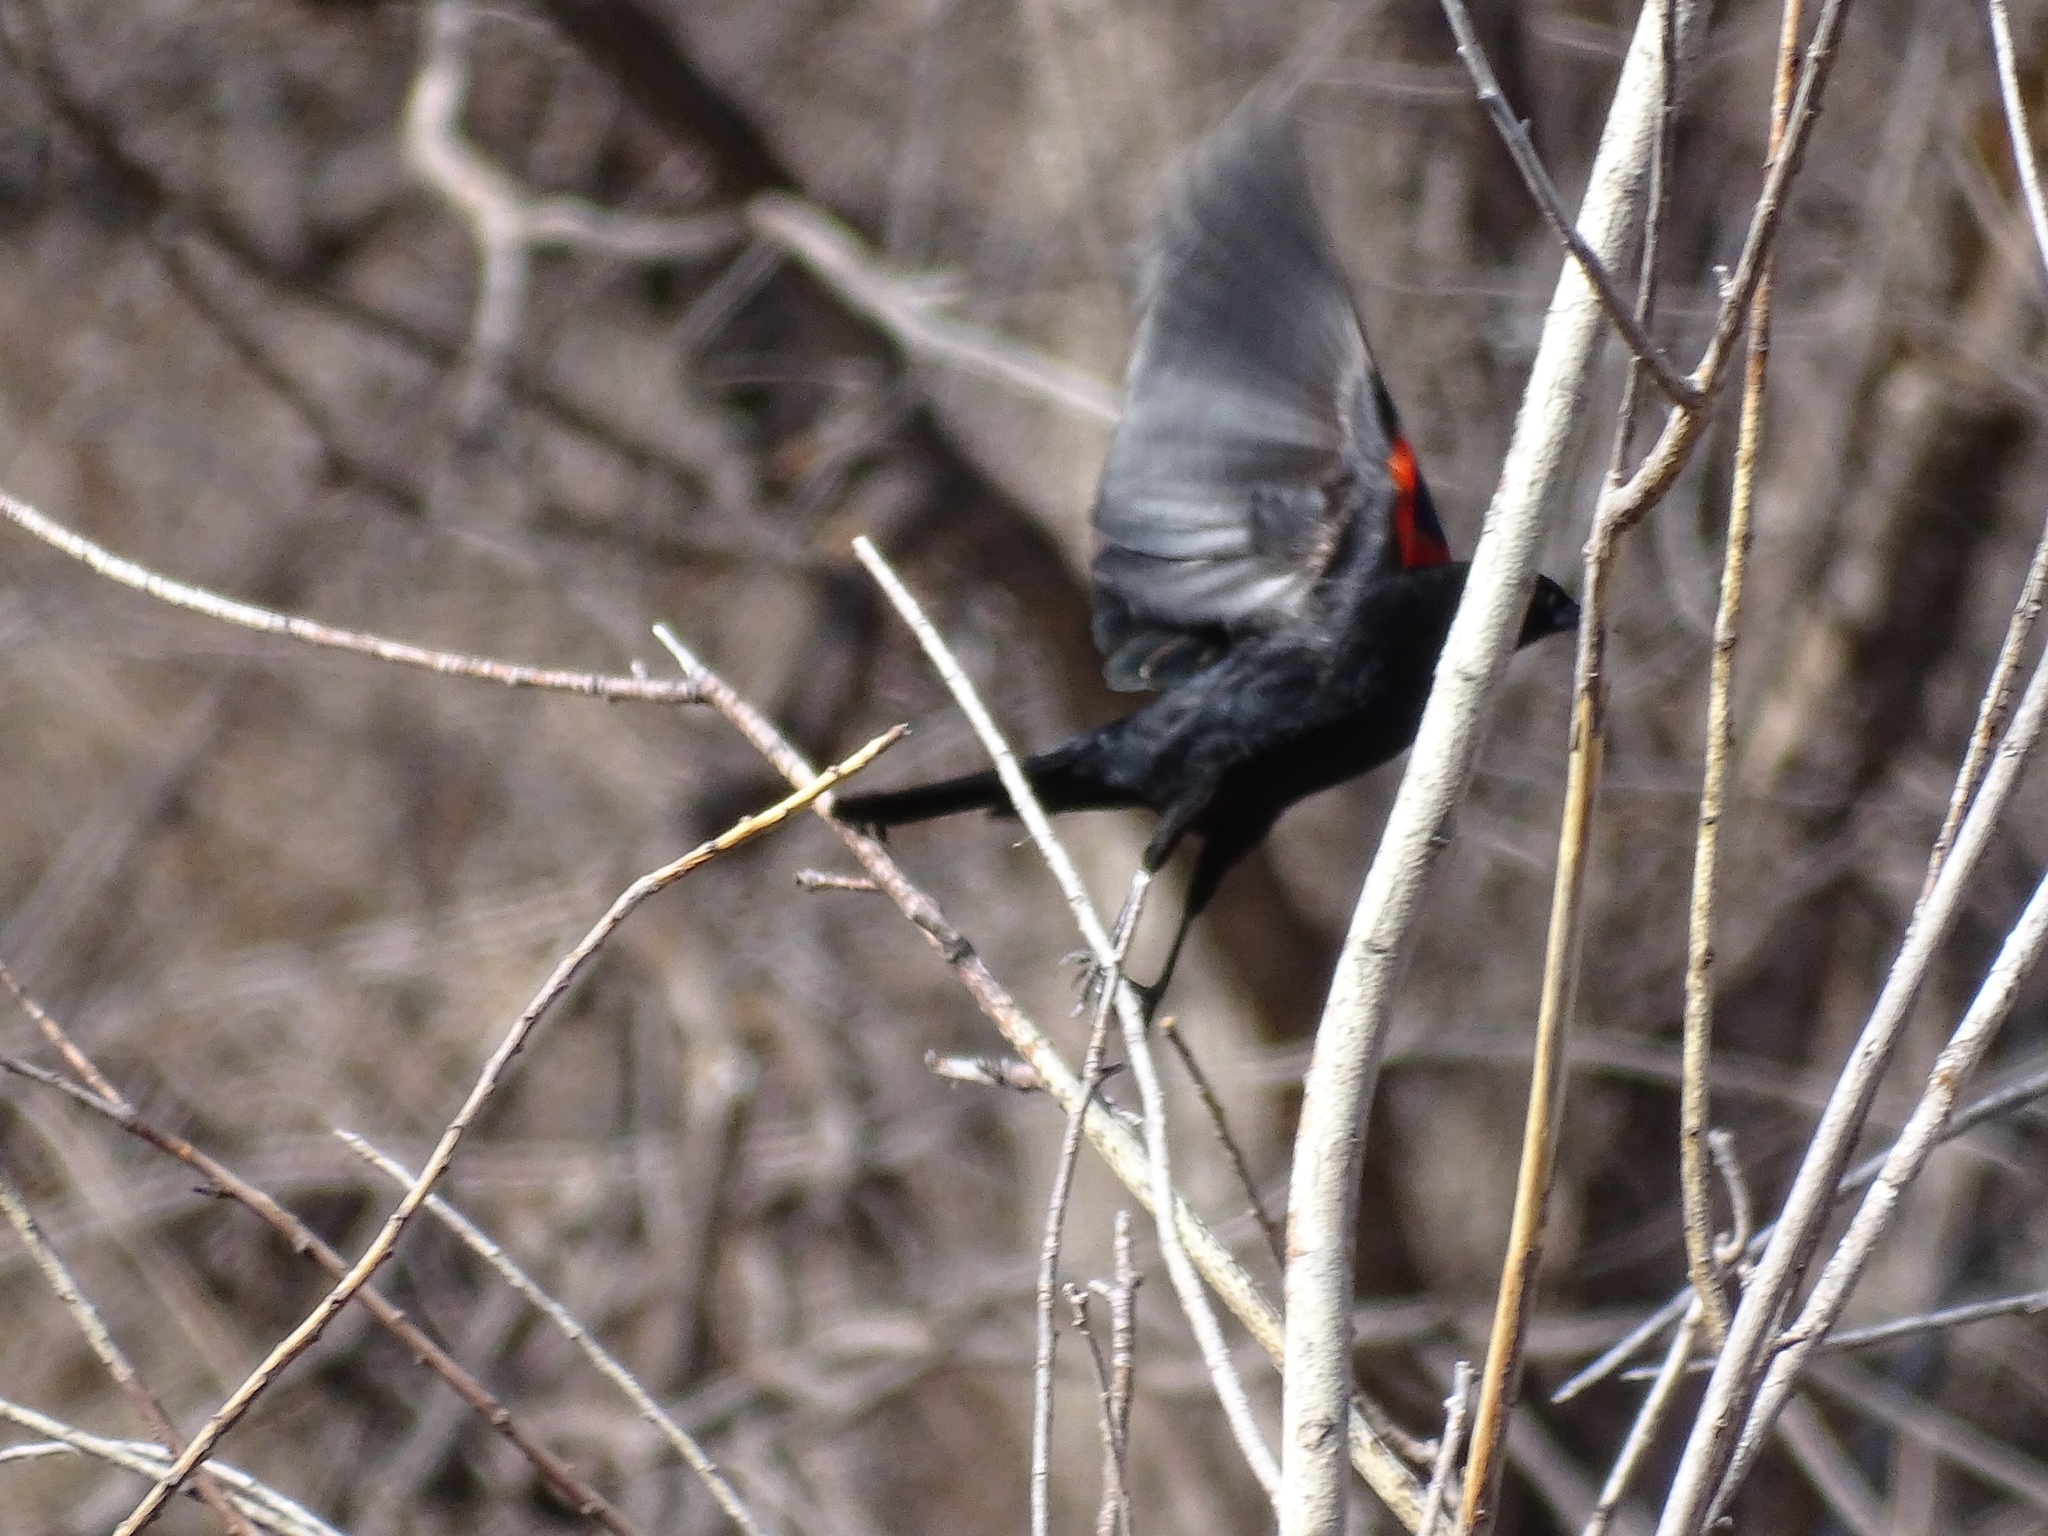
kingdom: Animalia
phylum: Chordata
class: Aves
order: Passeriformes
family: Icteridae
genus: Agelaius
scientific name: Agelaius phoeniceus
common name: Red-winged blackbird
